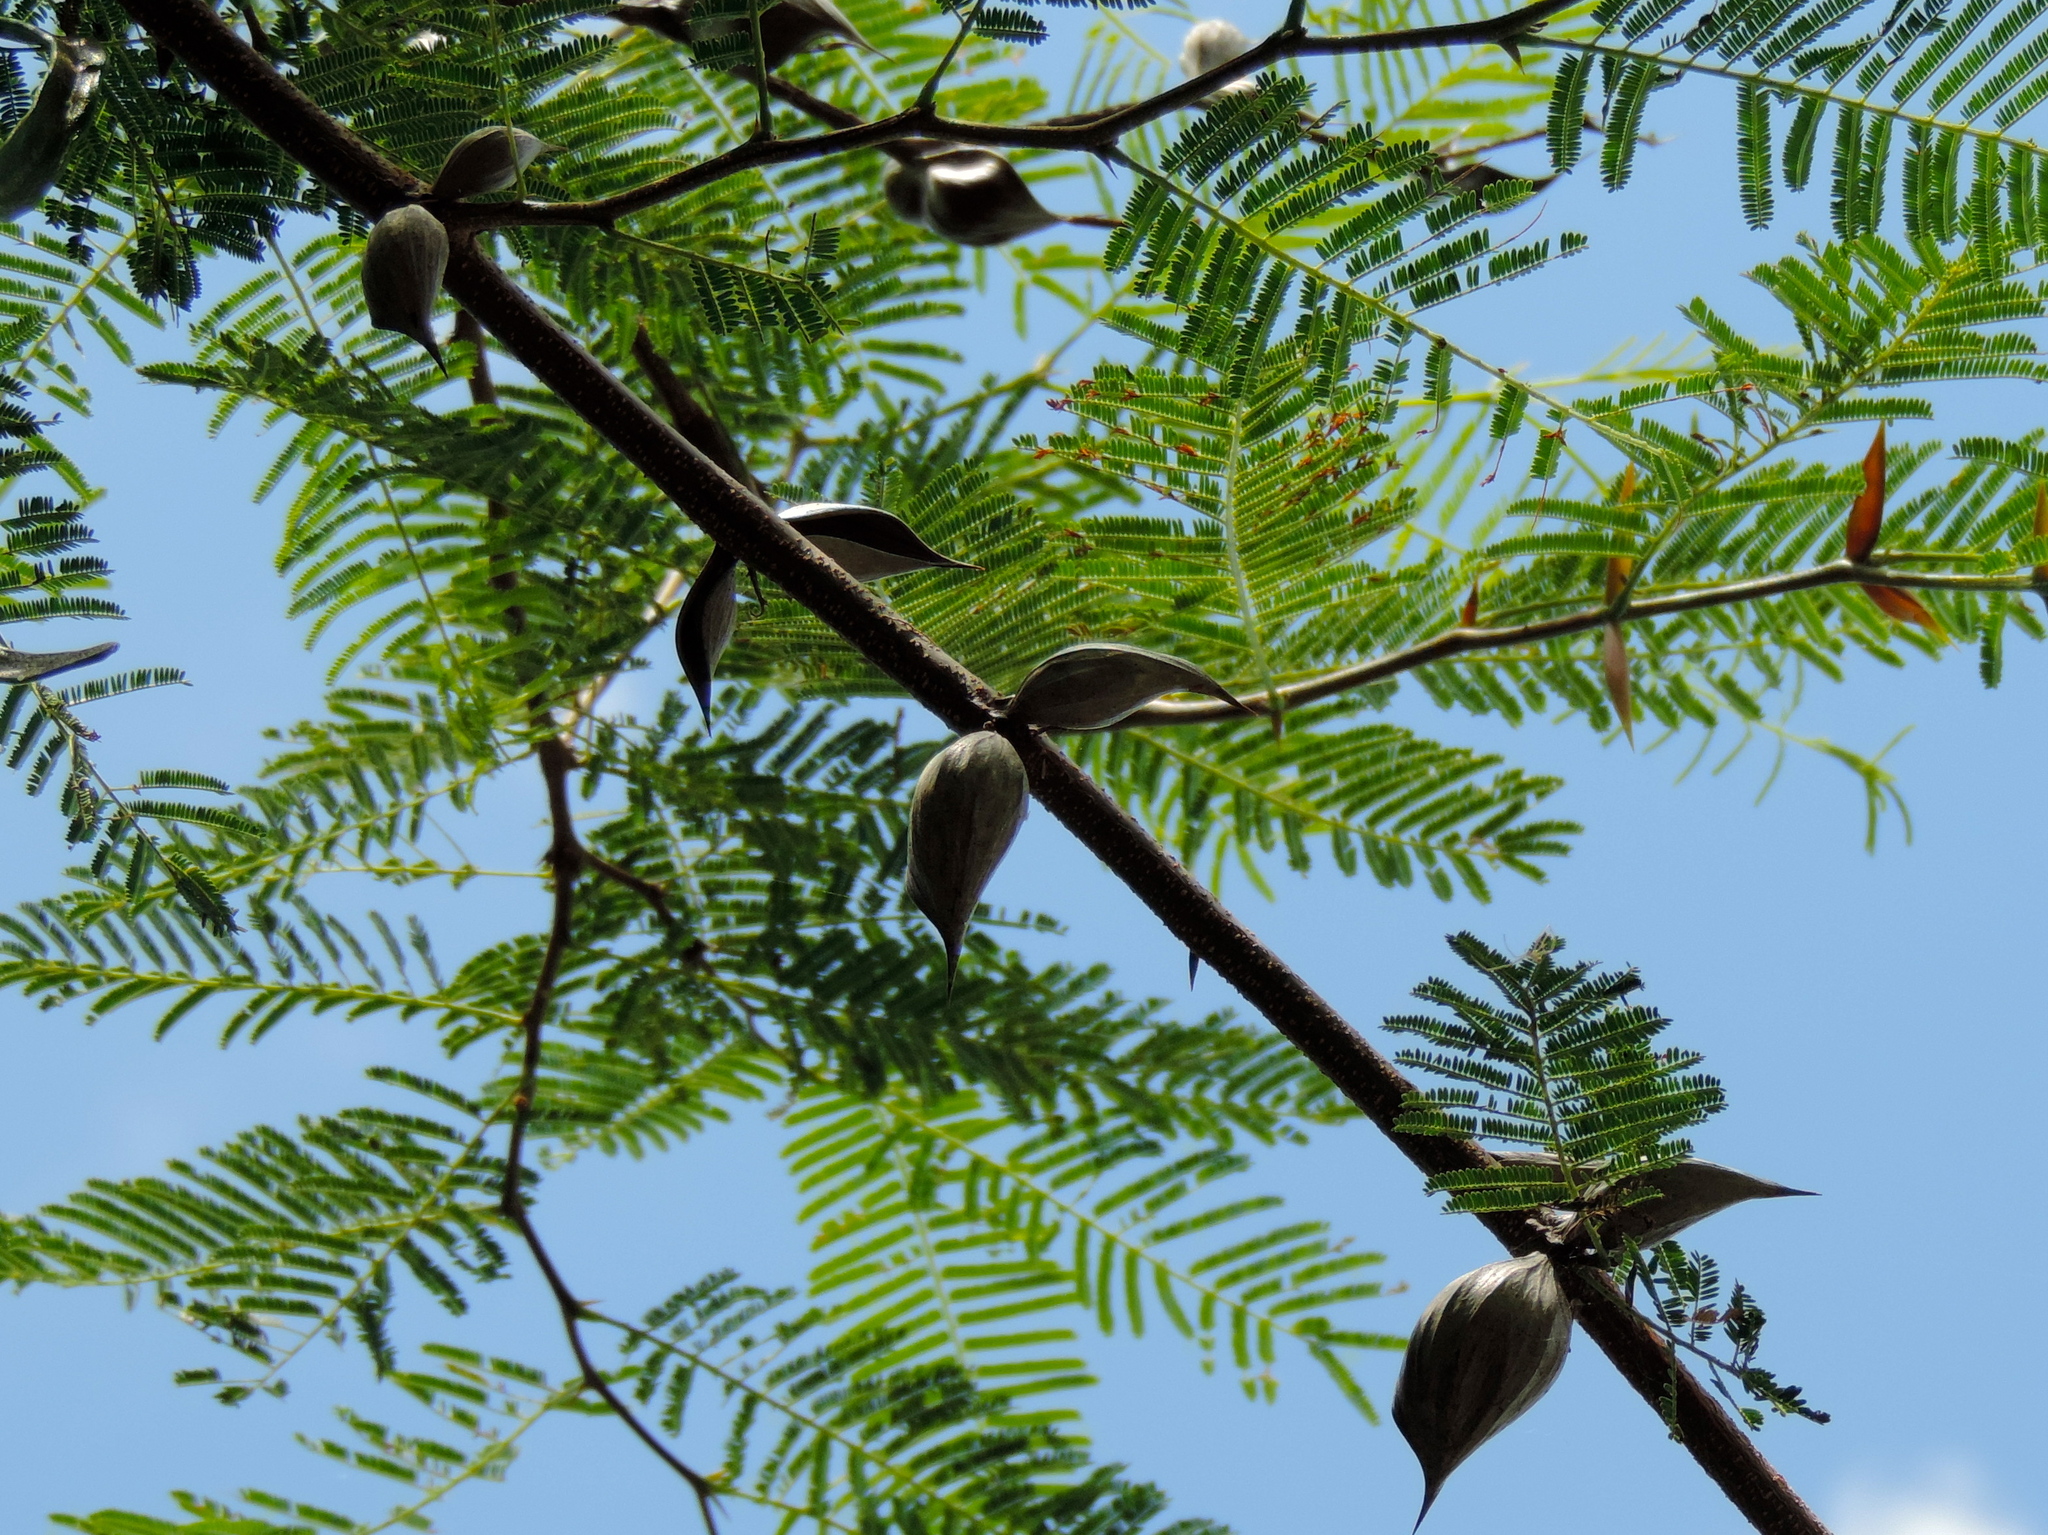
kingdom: Plantae
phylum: Tracheophyta
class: Magnoliopsida
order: Fabales
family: Fabaceae
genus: Vachellia
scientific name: Vachellia campechiana
